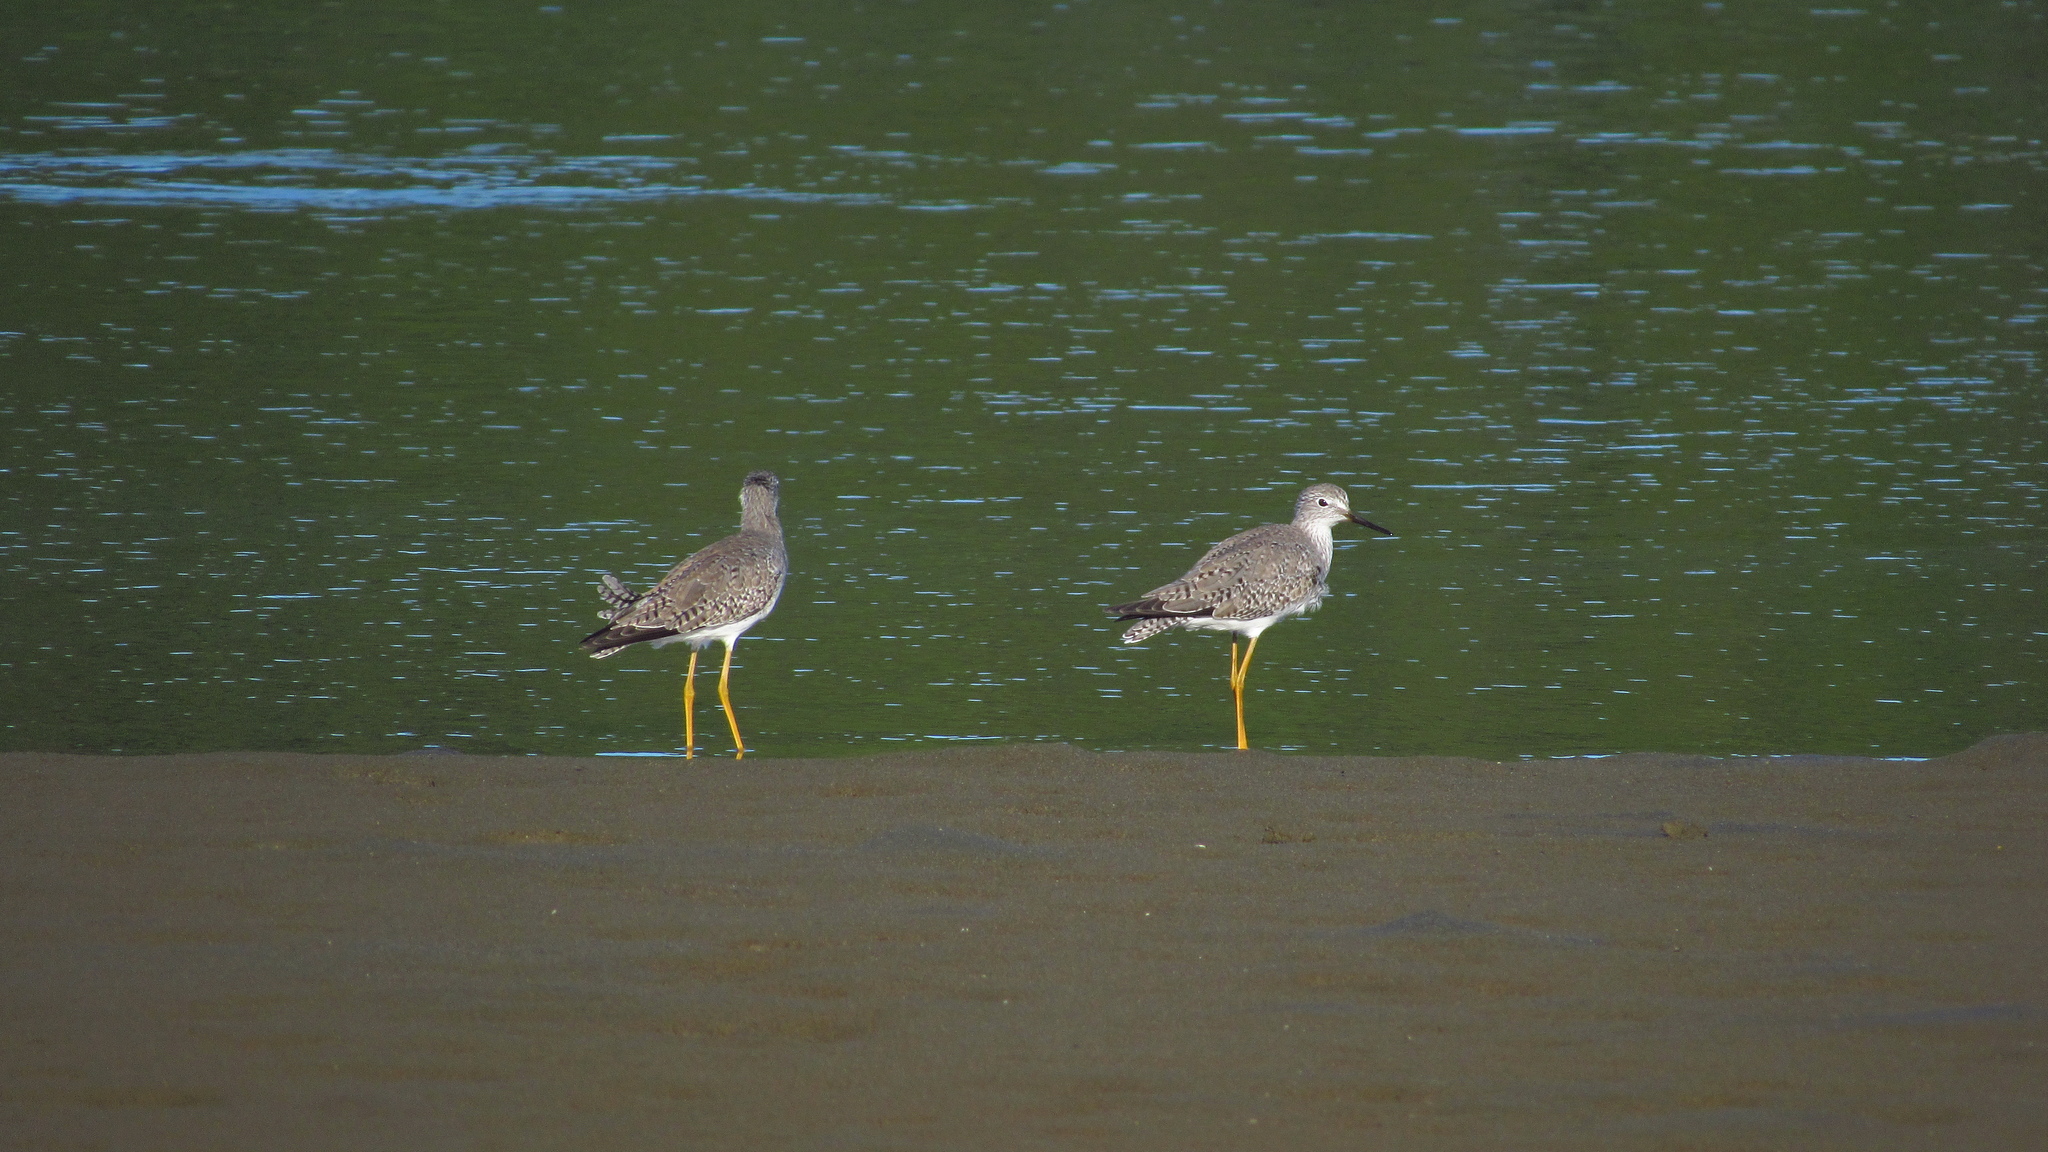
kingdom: Animalia
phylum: Chordata
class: Aves
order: Charadriiformes
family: Scolopacidae
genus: Tringa
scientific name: Tringa flavipes
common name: Lesser yellowlegs
